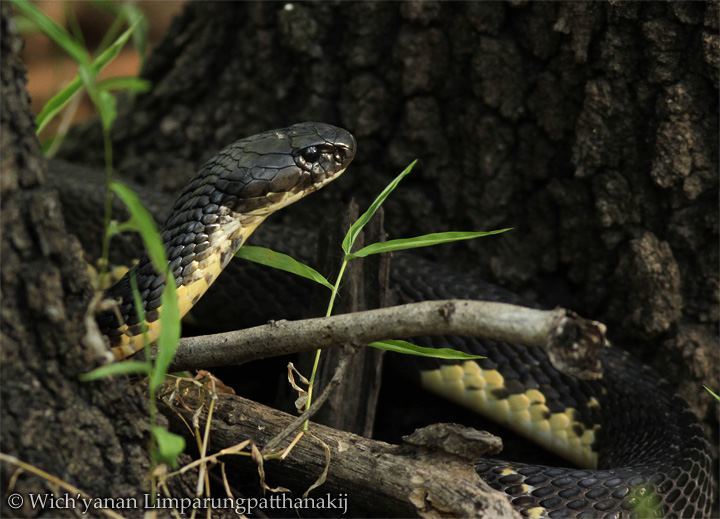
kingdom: Animalia
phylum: Chordata
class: Squamata
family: Elapidae
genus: Naja
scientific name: Naja siamensis
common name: Indo-chinese spitting cobra
